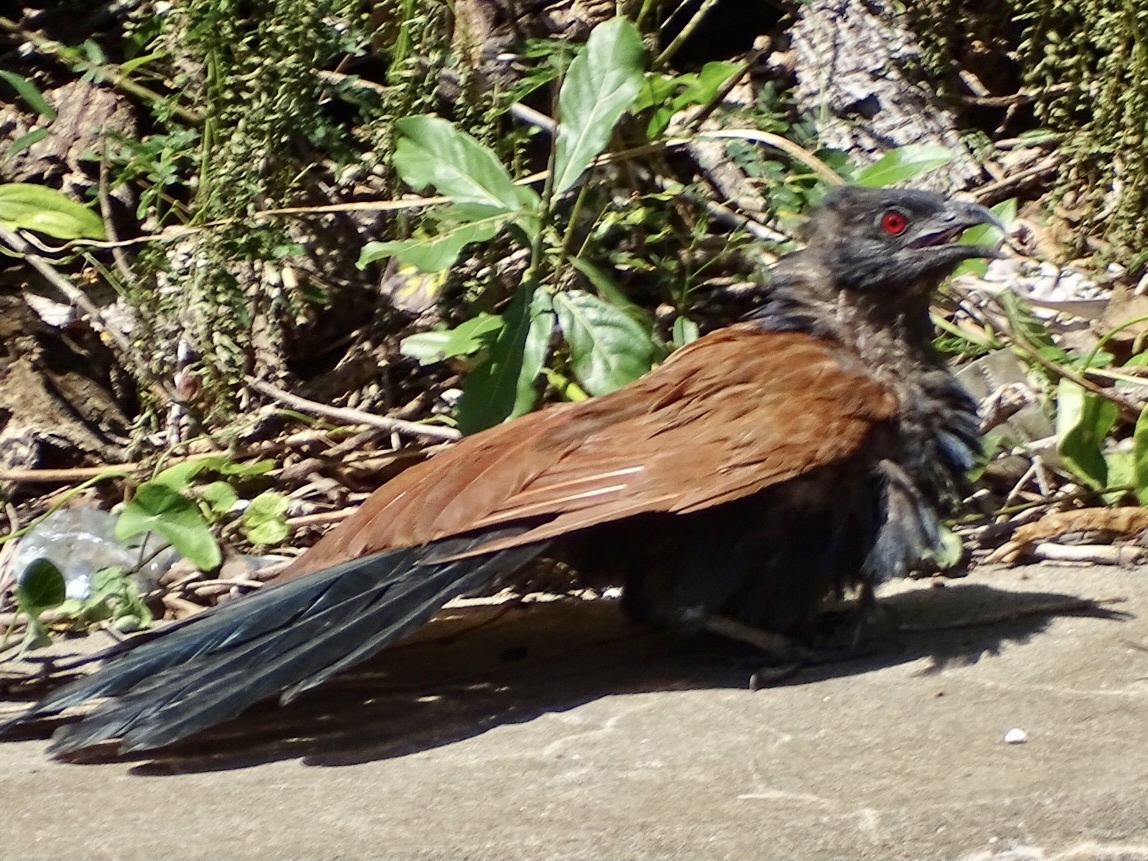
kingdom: Animalia
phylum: Chordata
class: Aves
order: Cuculiformes
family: Cuculidae
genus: Centropus
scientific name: Centropus sinensis
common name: Greater coucal
